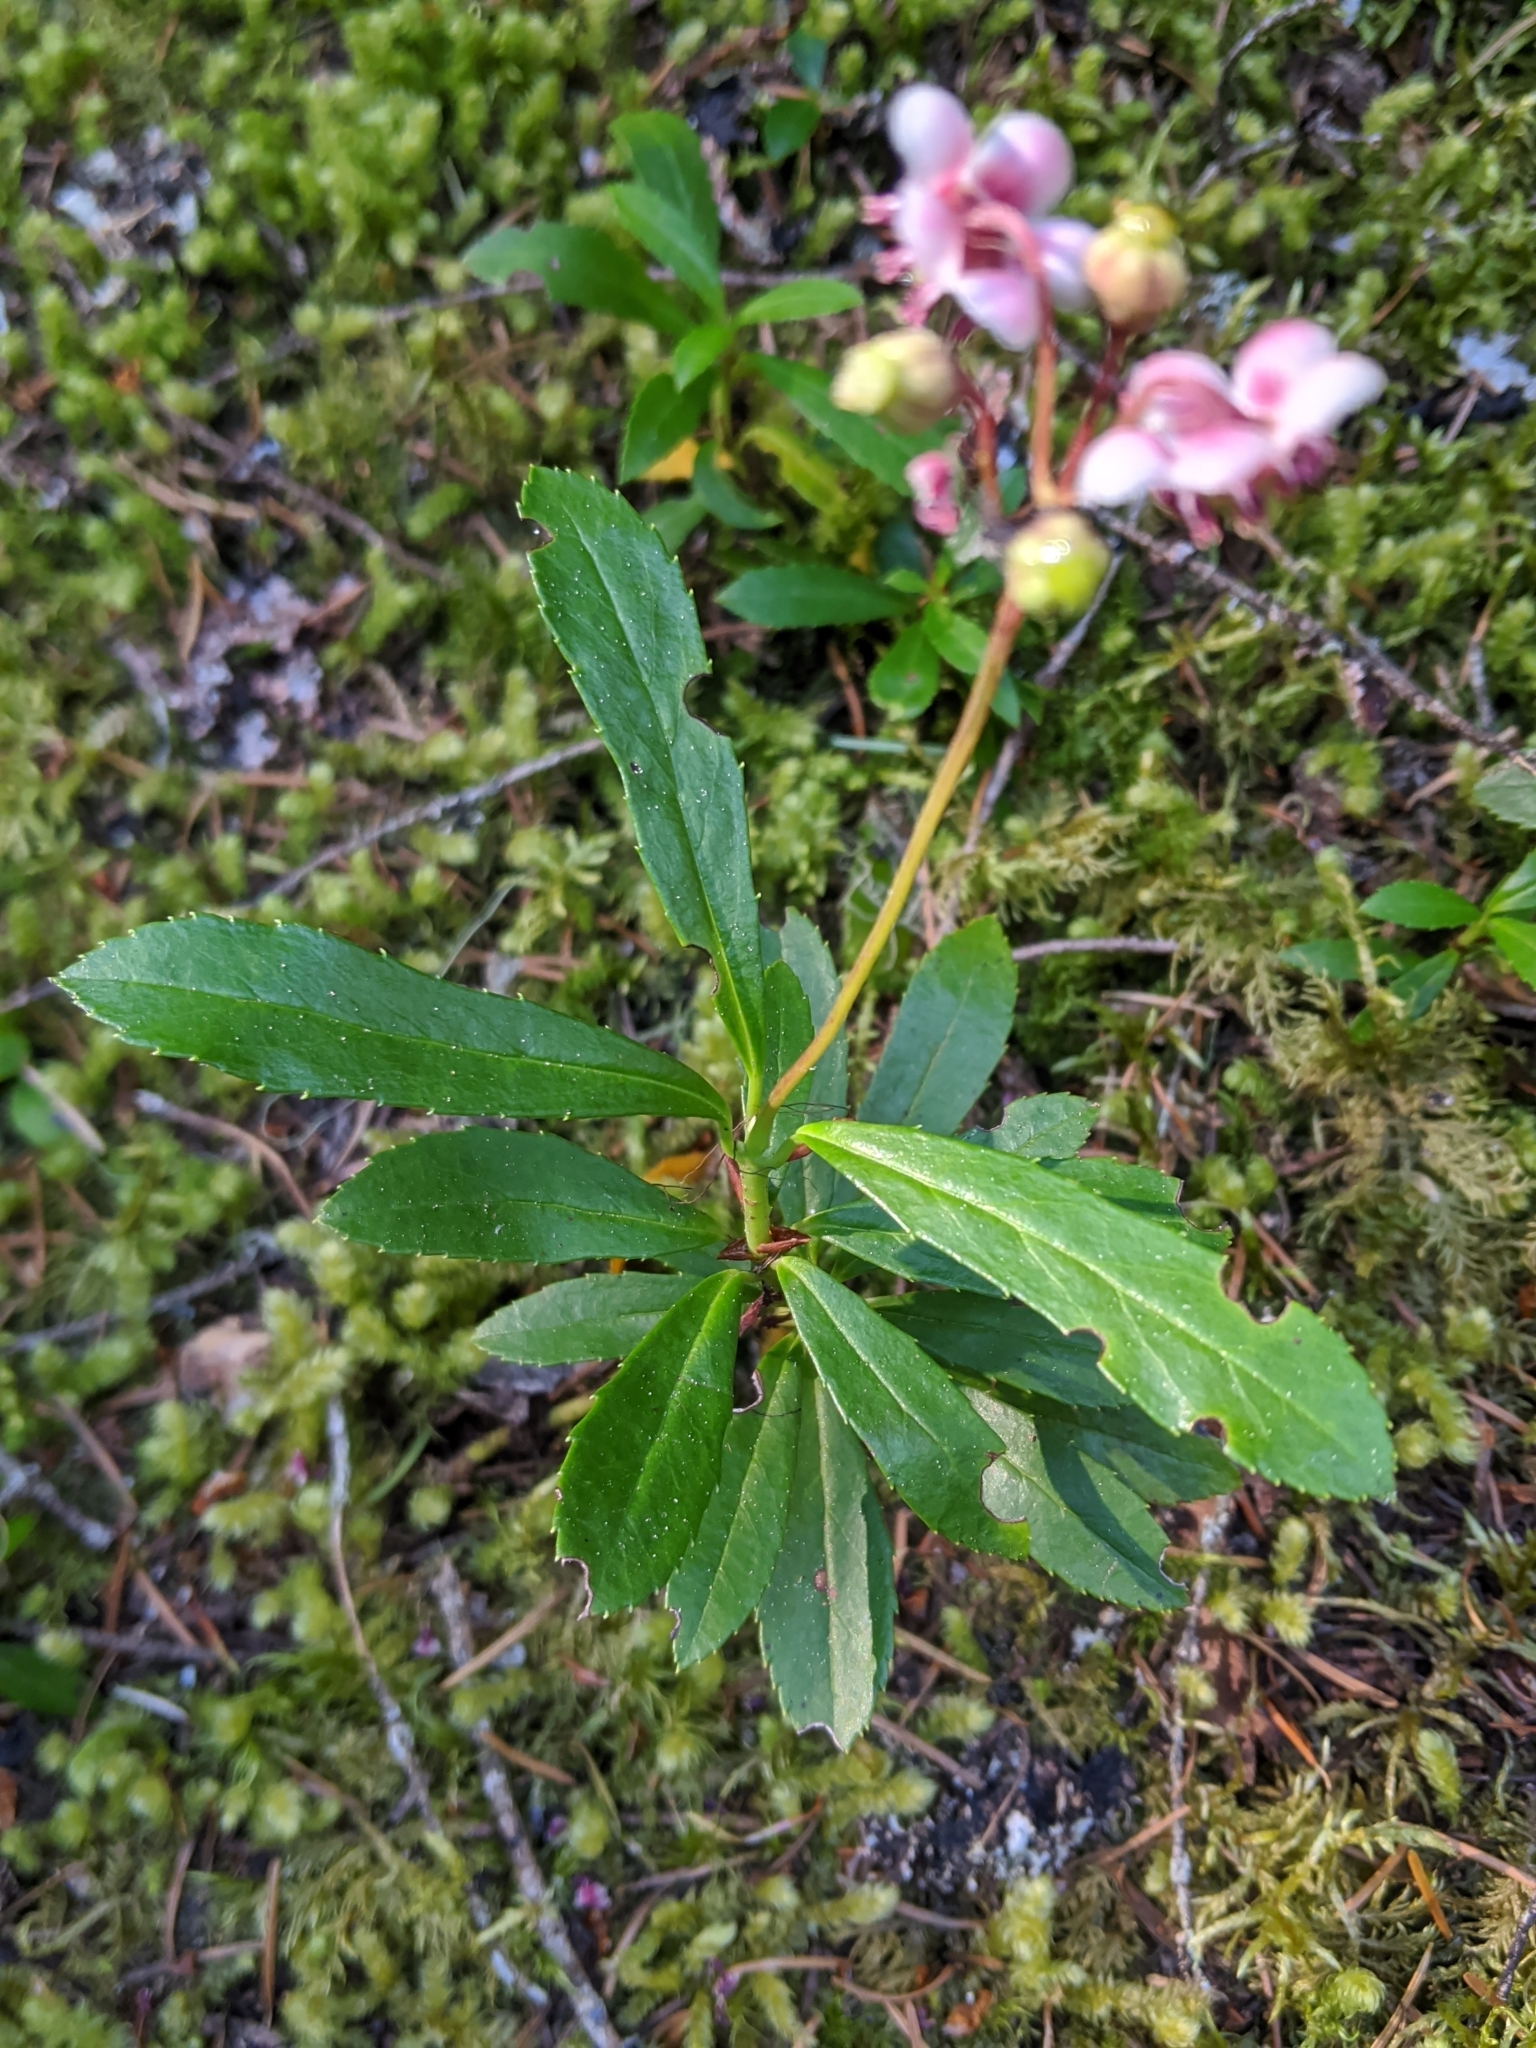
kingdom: Plantae
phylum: Tracheophyta
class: Magnoliopsida
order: Ericales
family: Ericaceae
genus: Chimaphila
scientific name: Chimaphila umbellata
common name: Pipsissewa
